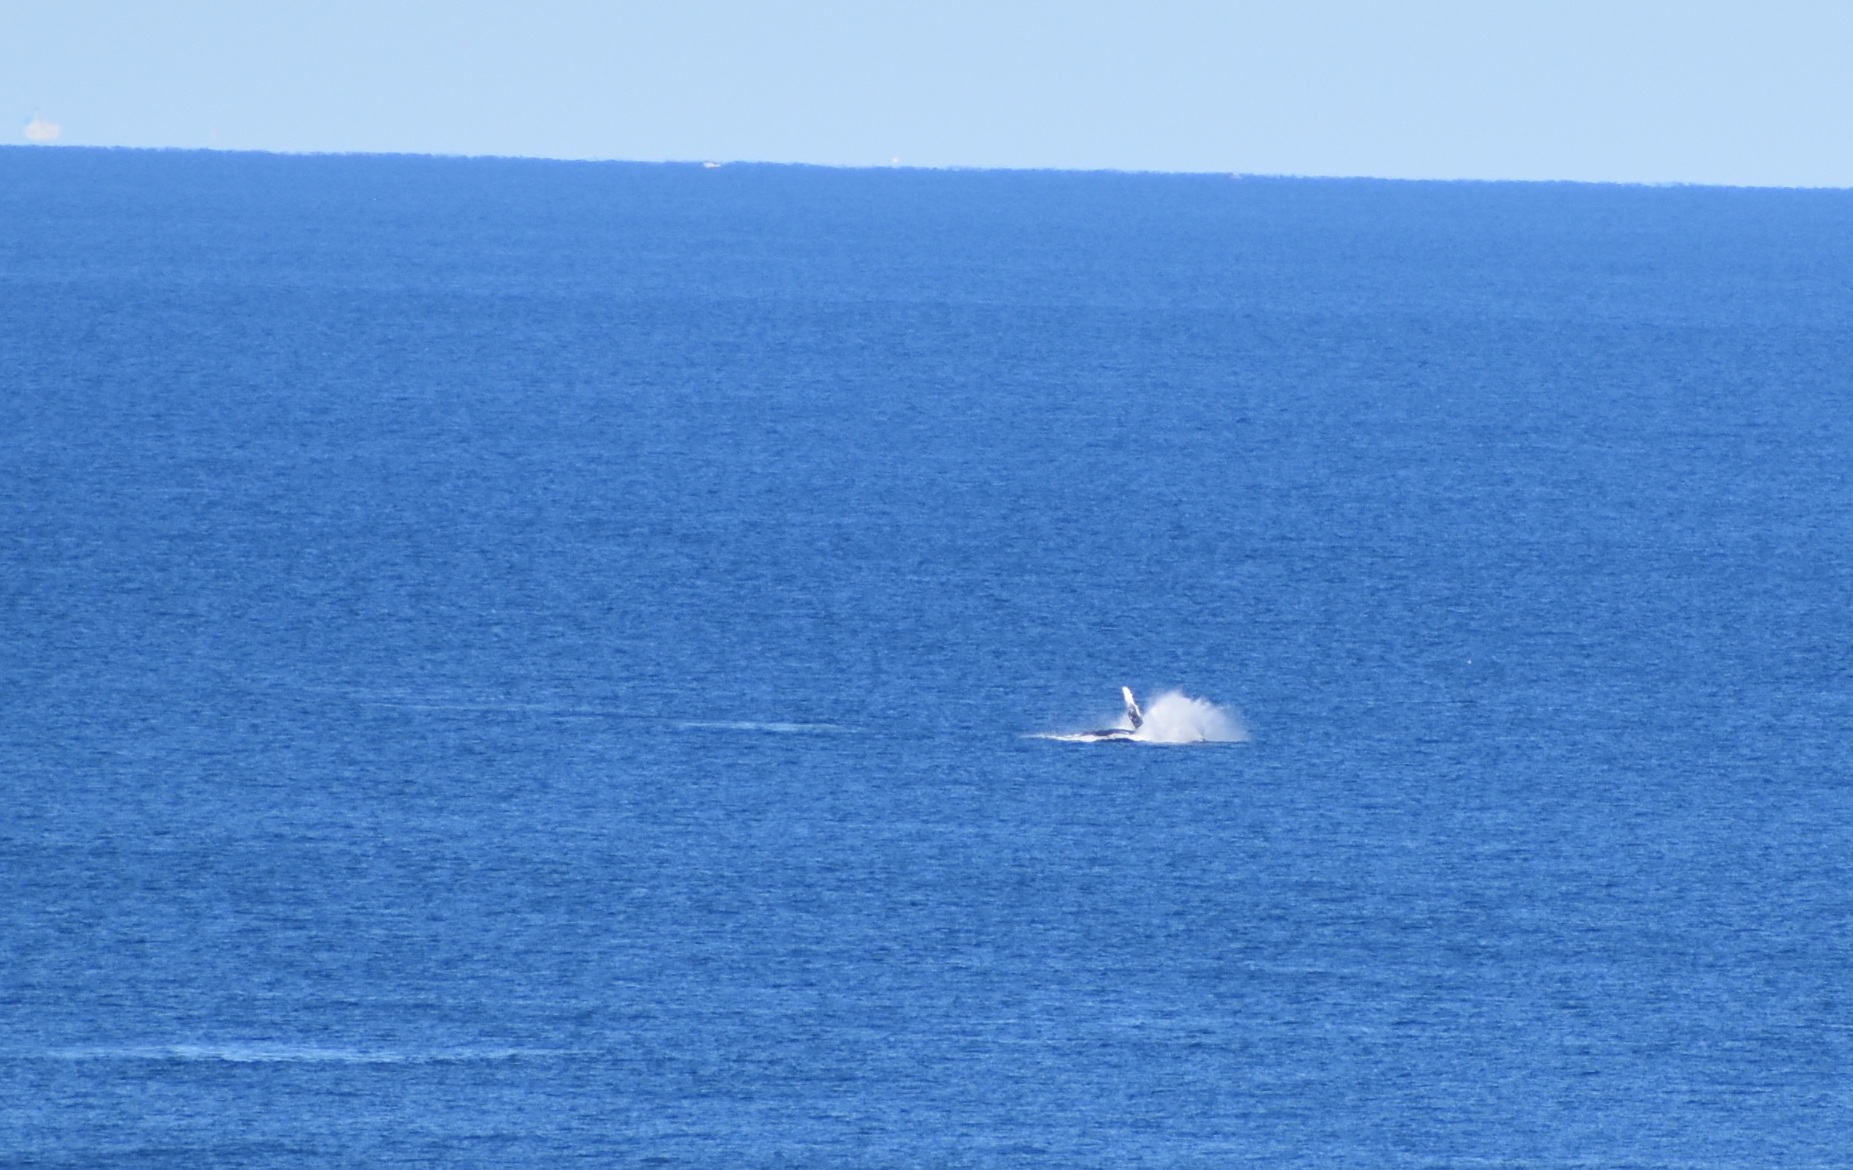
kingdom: Animalia
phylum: Chordata
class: Mammalia
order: Cetacea
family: Balaenopteridae
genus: Megaptera
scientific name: Megaptera novaeangliae
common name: Humpback whale
